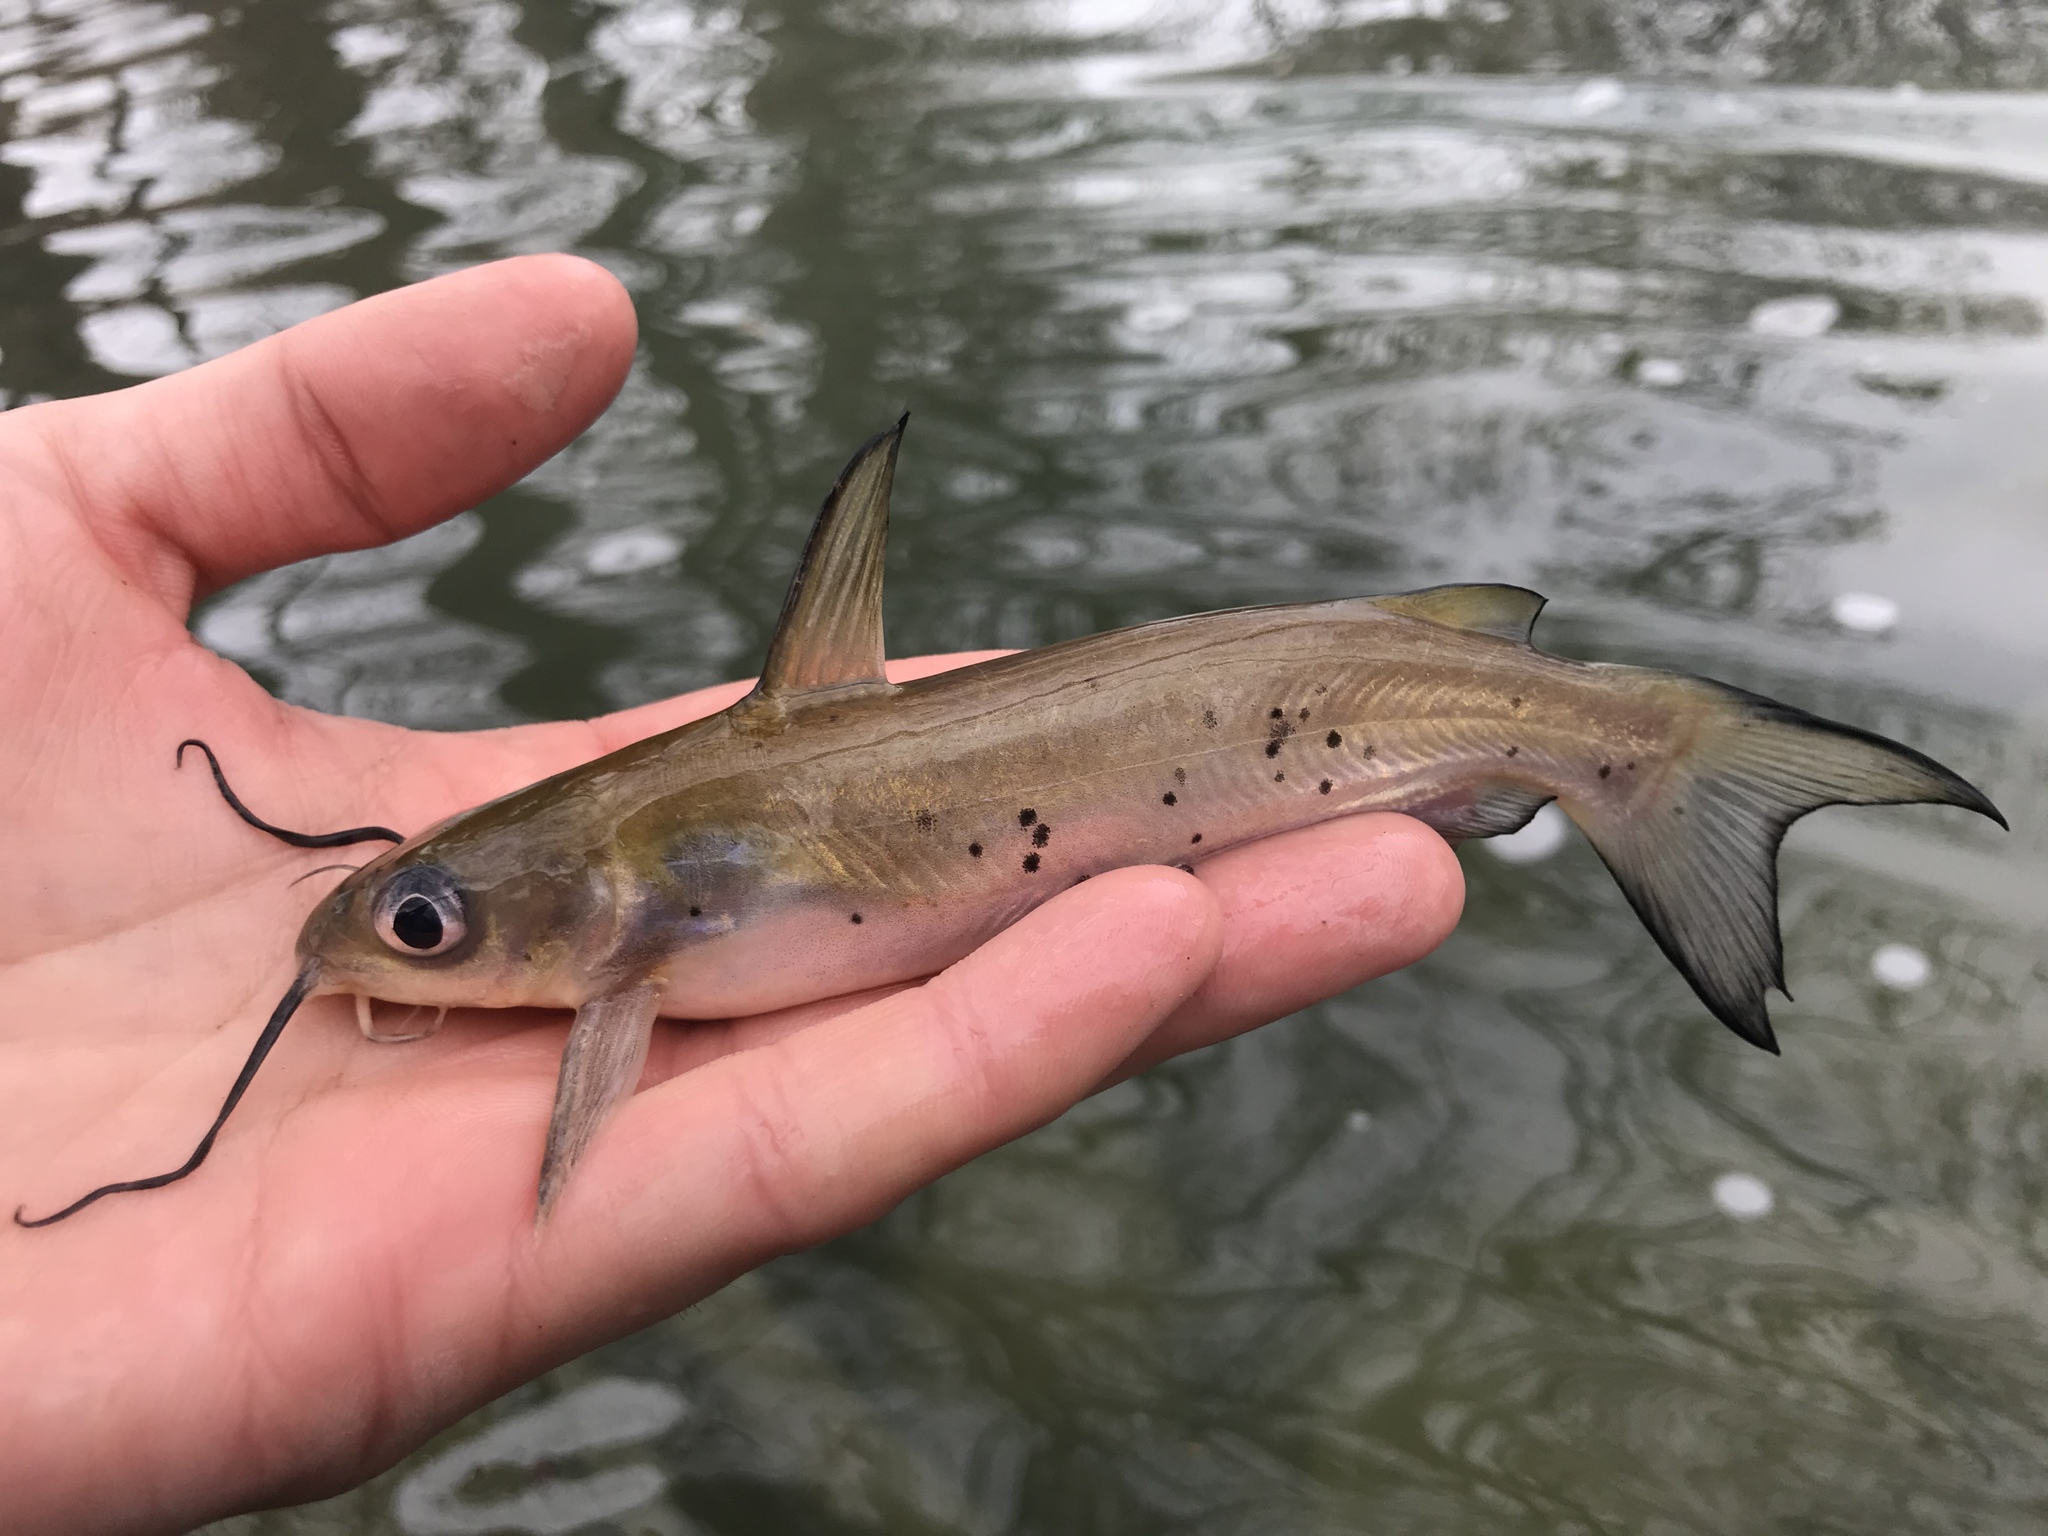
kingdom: Animalia
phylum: Chordata
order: Siluriformes
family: Ictaluridae
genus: Ictalurus
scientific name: Ictalurus punctatus
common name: Channel catfish
